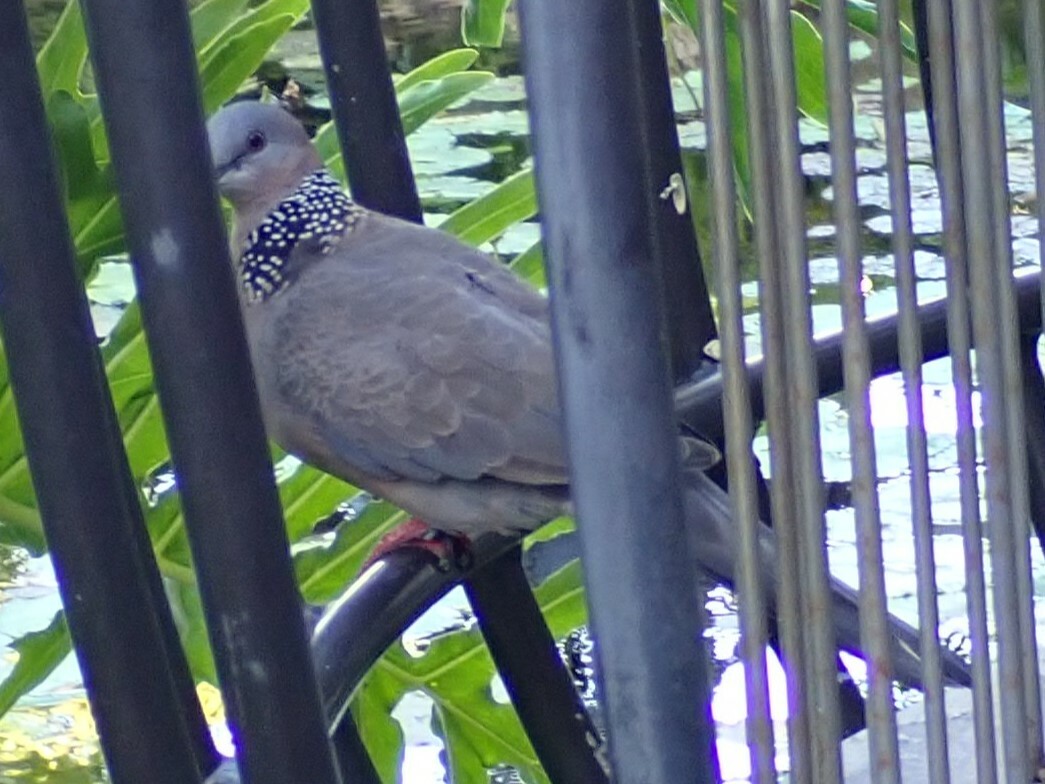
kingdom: Animalia
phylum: Chordata
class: Aves
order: Columbiformes
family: Columbidae
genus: Spilopelia
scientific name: Spilopelia chinensis
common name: Spotted dove
